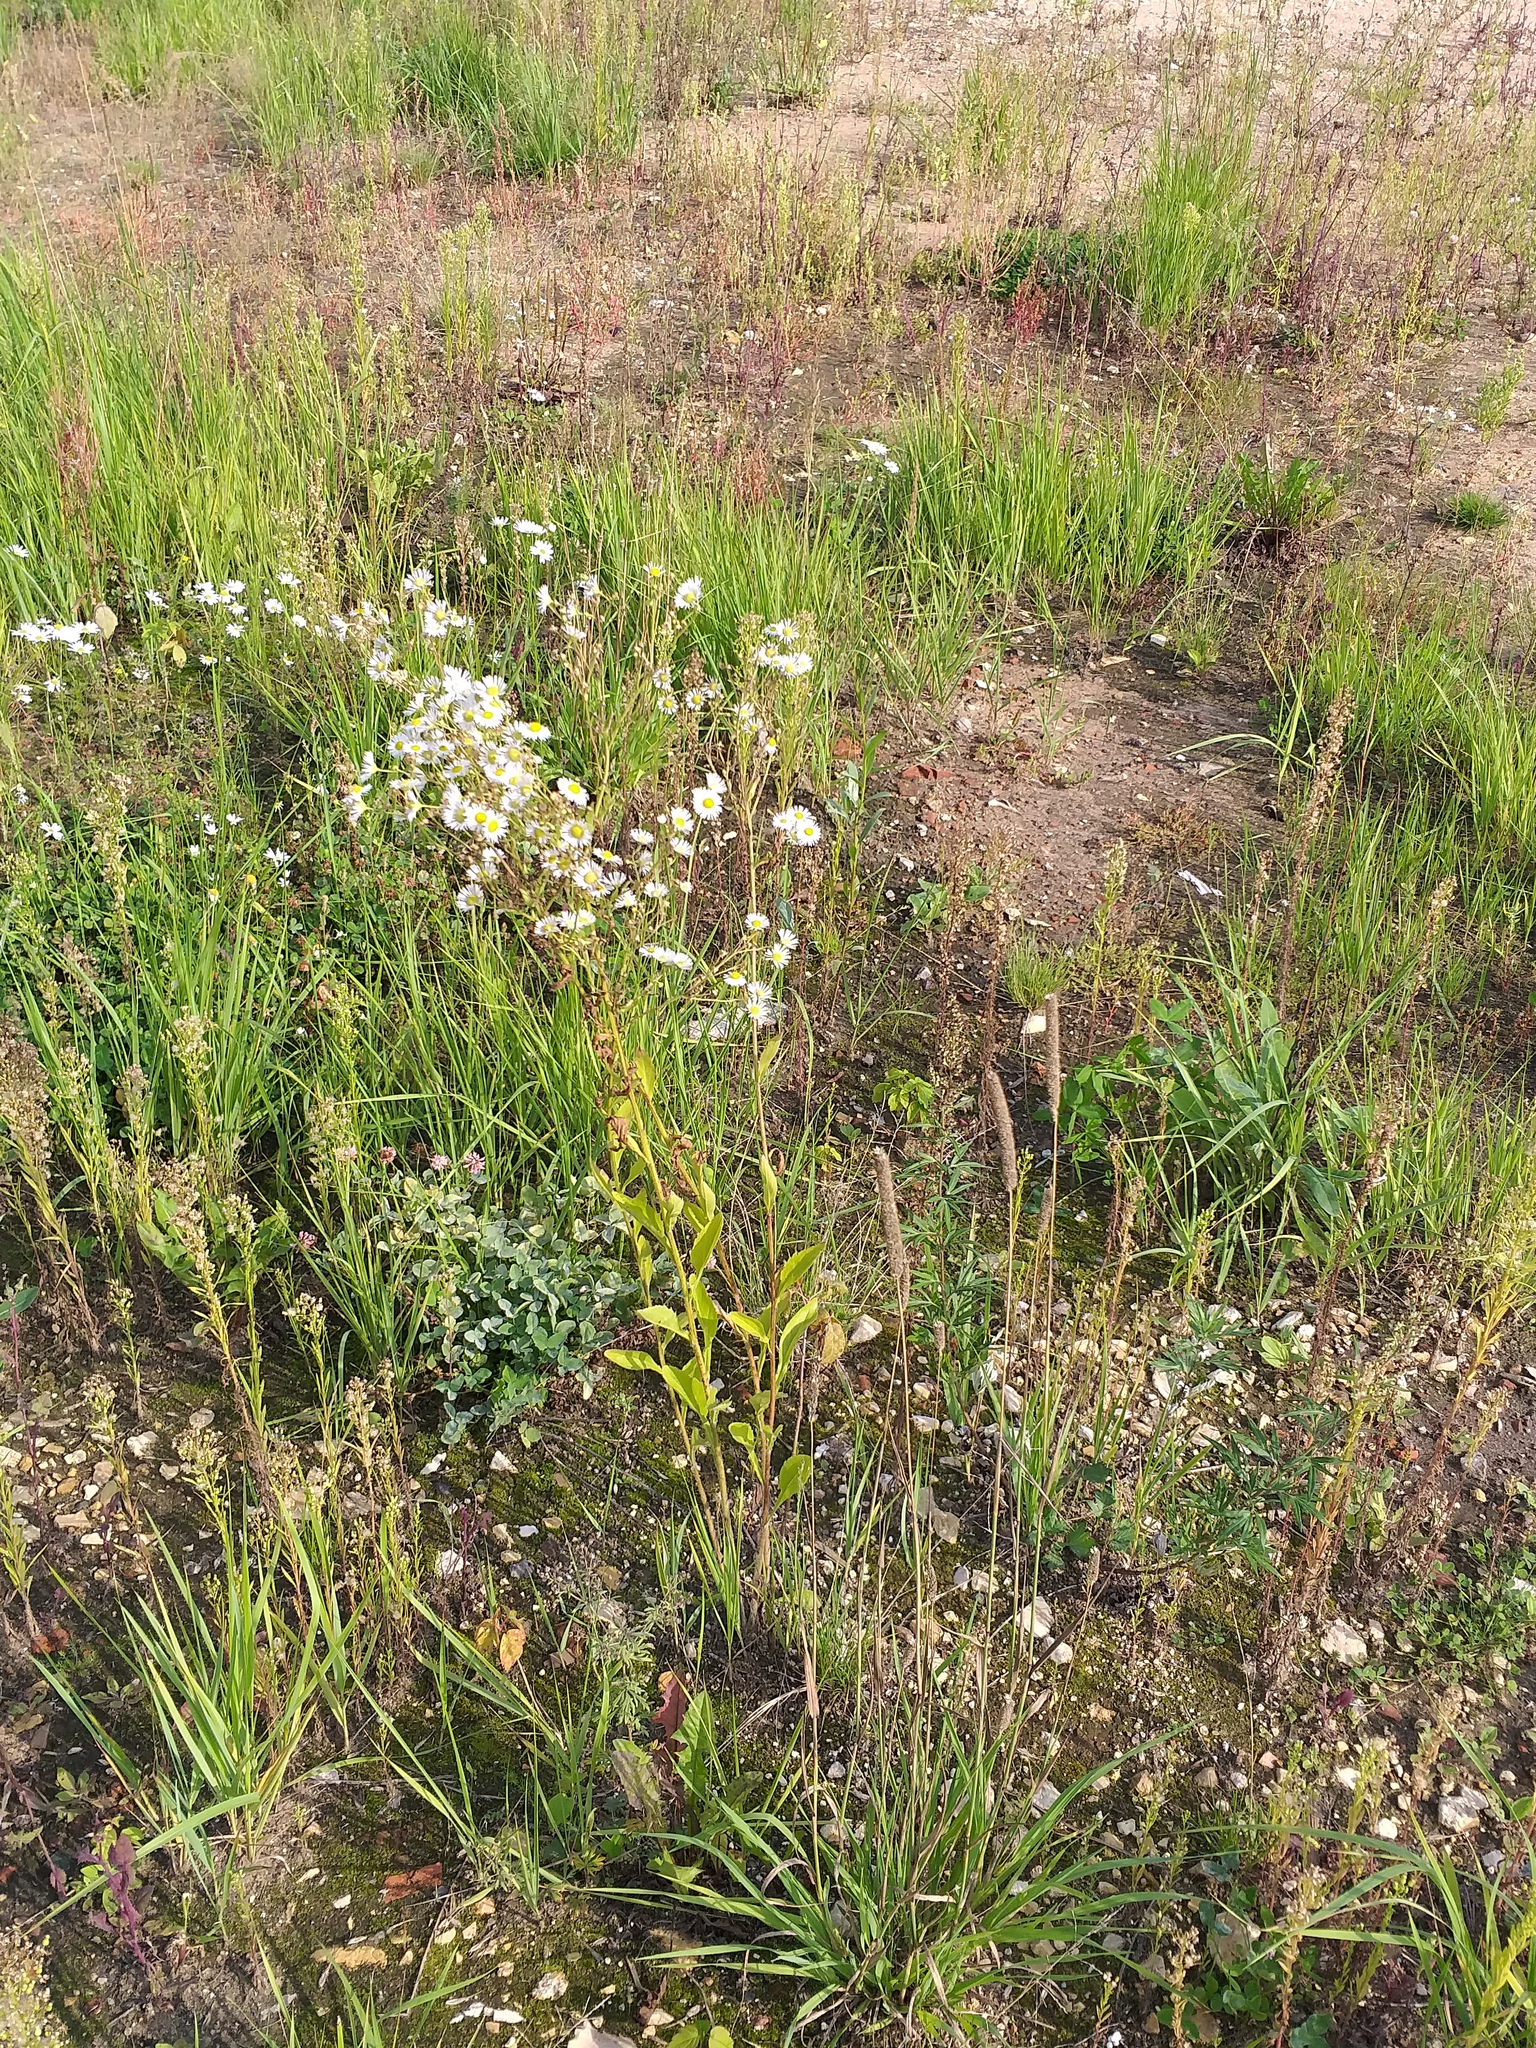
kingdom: Plantae
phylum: Tracheophyta
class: Magnoliopsida
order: Asterales
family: Asteraceae
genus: Erigeron
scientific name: Erigeron annuus
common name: Tall fleabane
